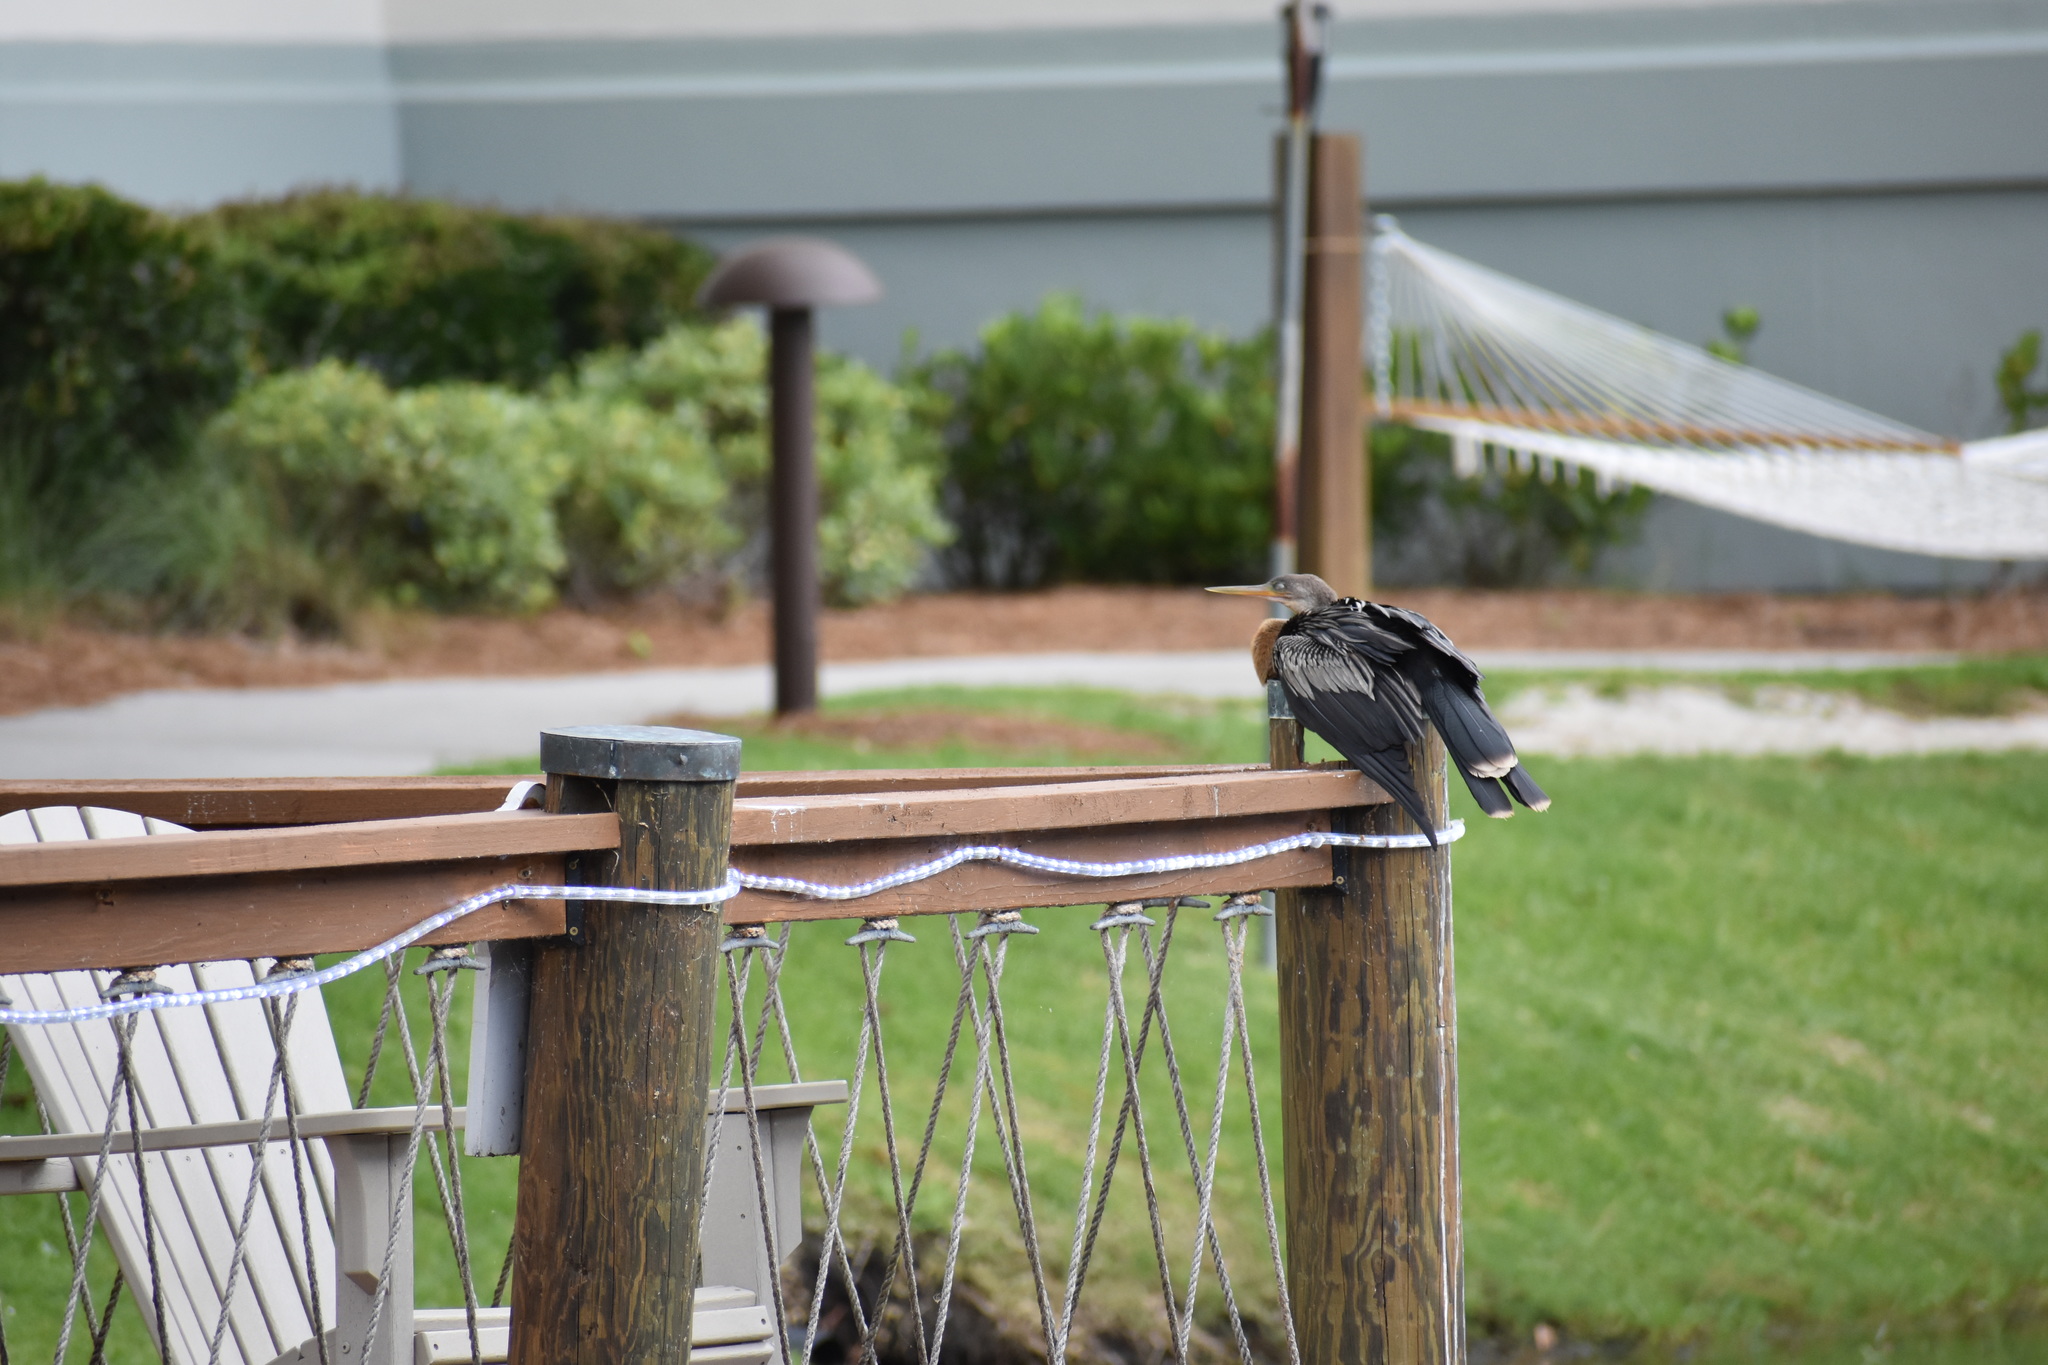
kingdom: Animalia
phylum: Chordata
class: Aves
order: Suliformes
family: Anhingidae
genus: Anhinga
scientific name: Anhinga anhinga
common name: Anhinga
